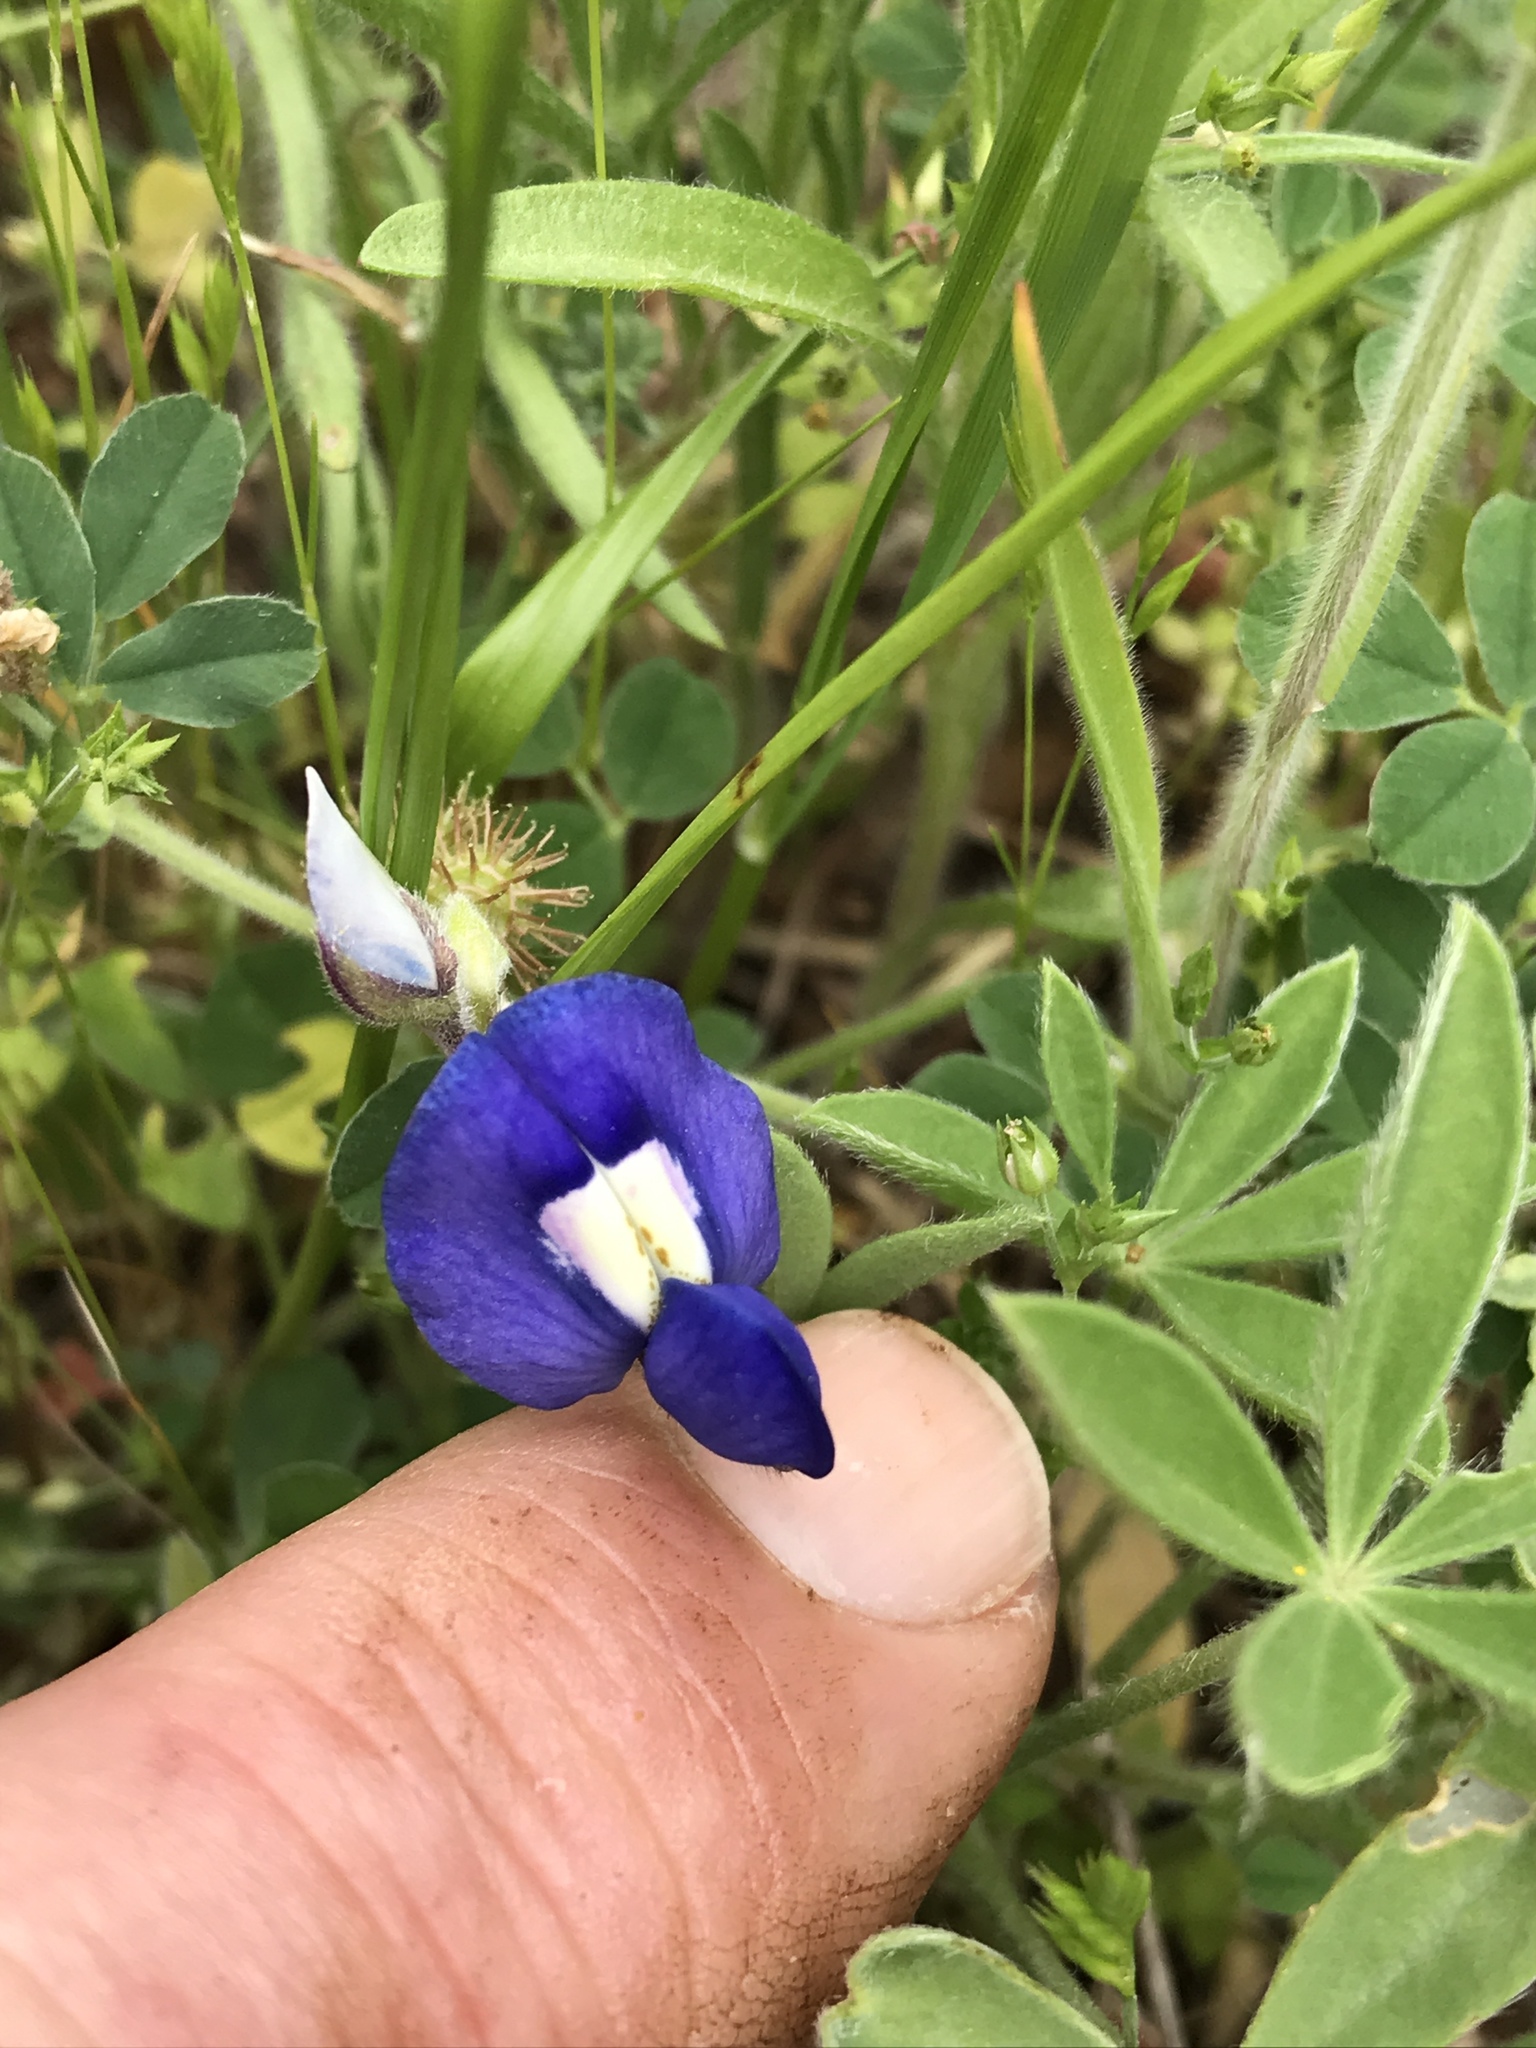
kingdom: Plantae
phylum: Tracheophyta
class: Magnoliopsida
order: Fabales
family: Fabaceae
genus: Lupinus
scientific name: Lupinus texensis
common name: Texas bluebonnet
